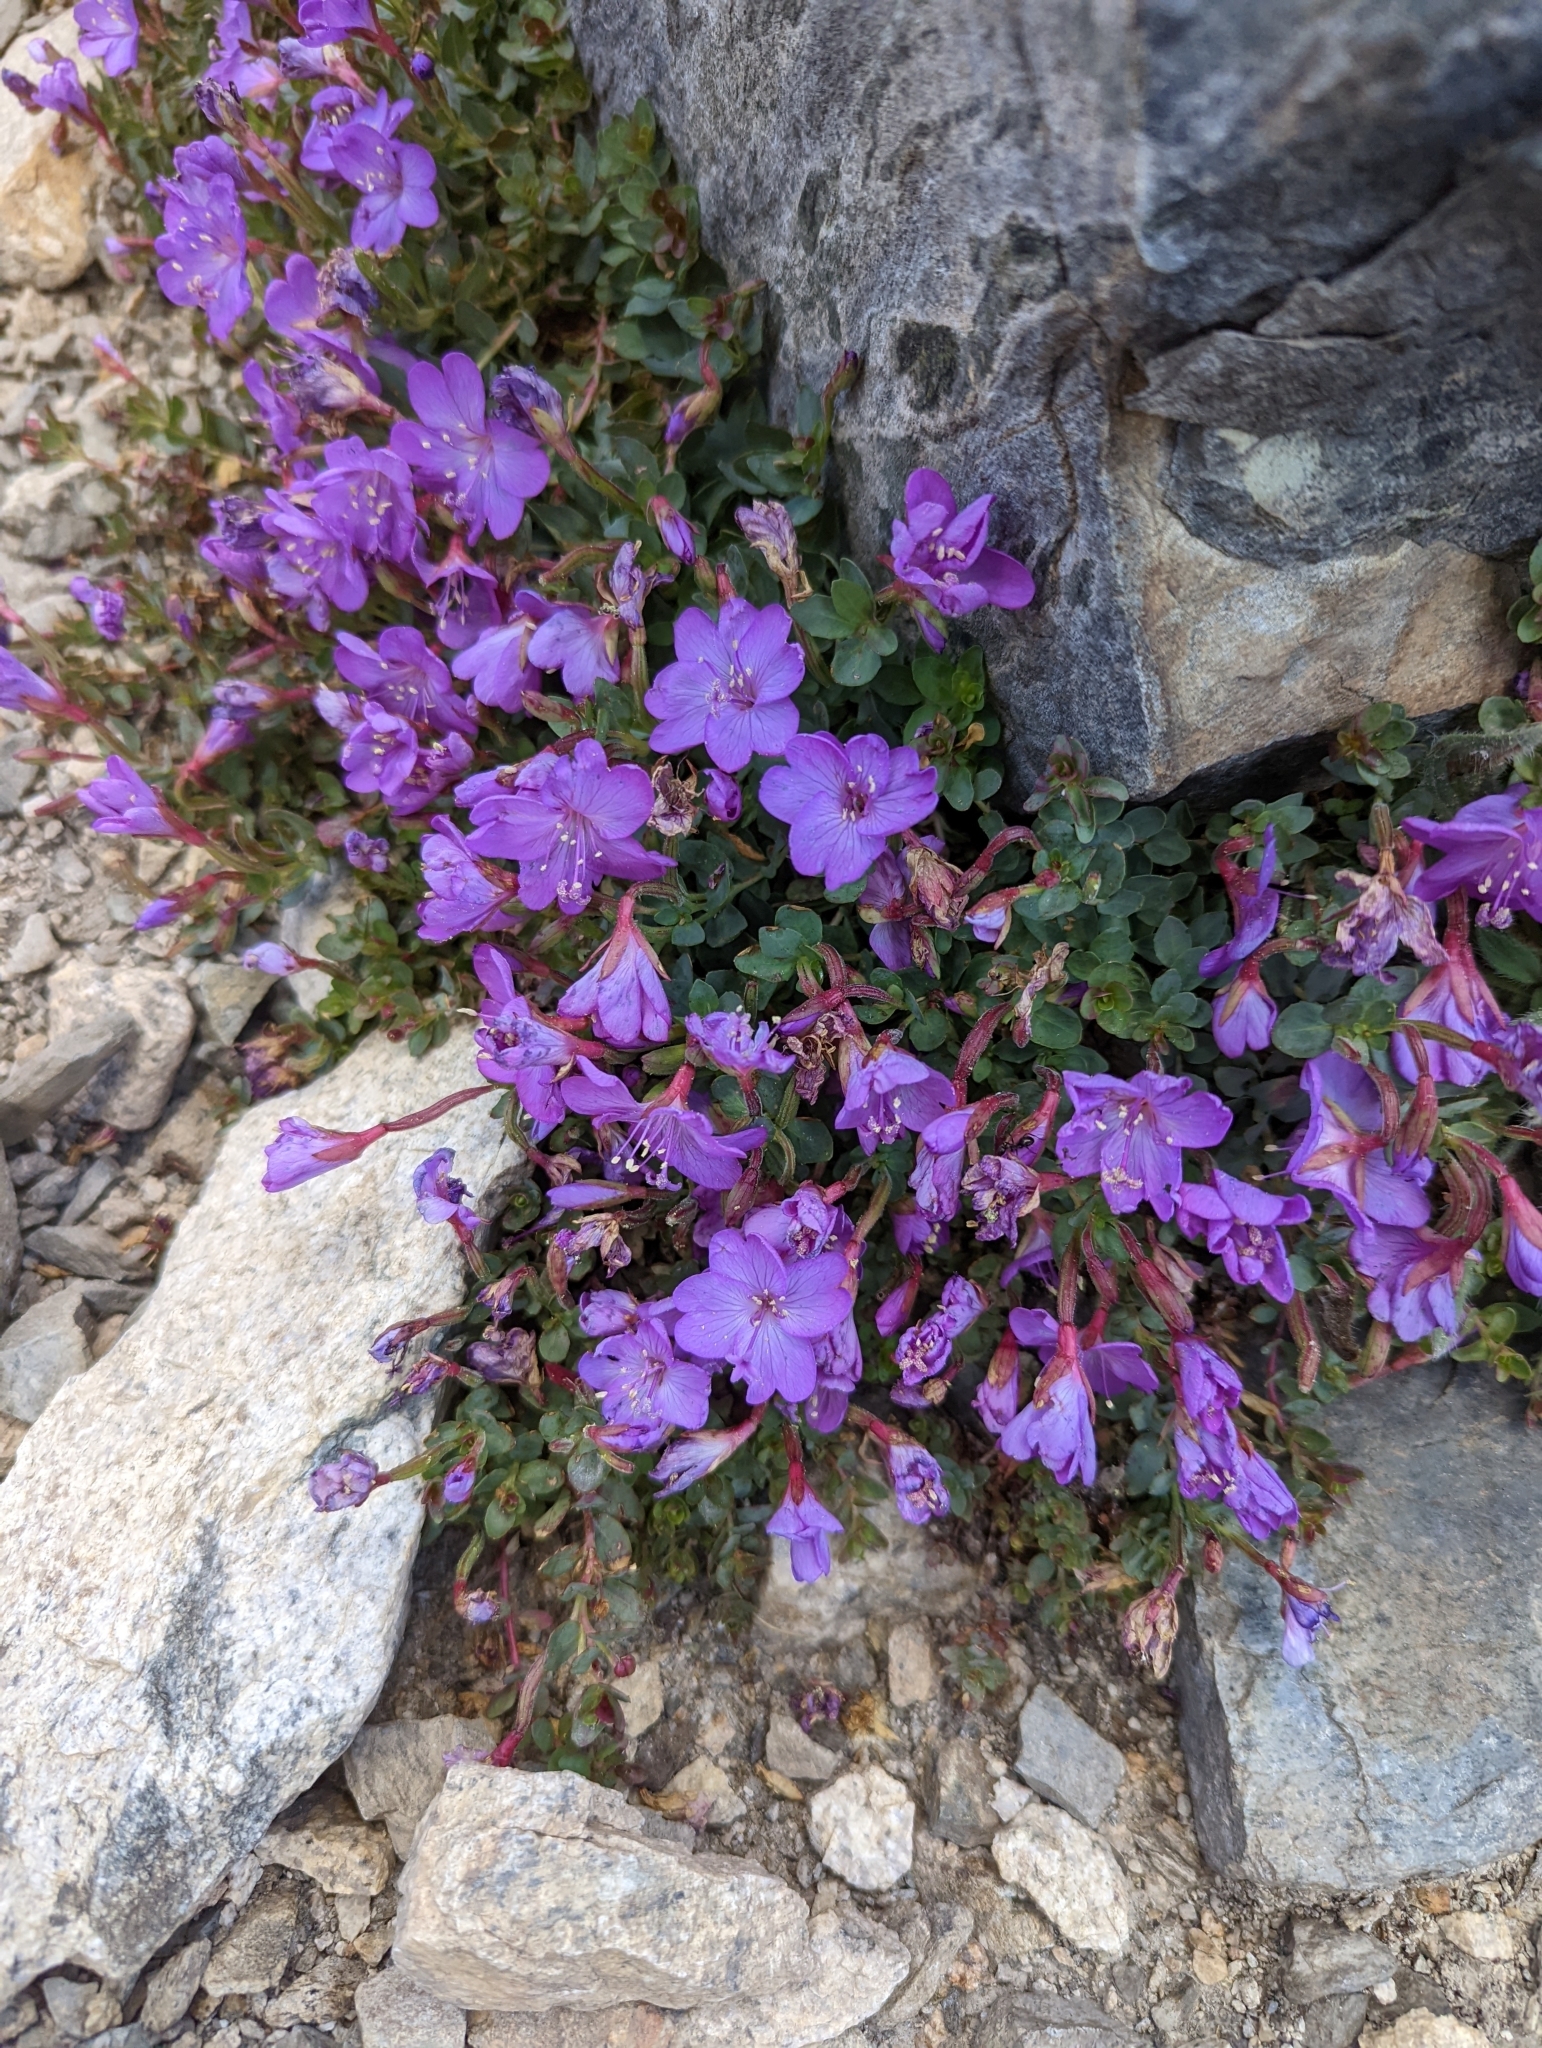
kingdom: Plantae
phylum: Tracheophyta
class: Magnoliopsida
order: Myrtales
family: Onagraceae
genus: Epilobium
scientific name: Epilobium obcordatum
